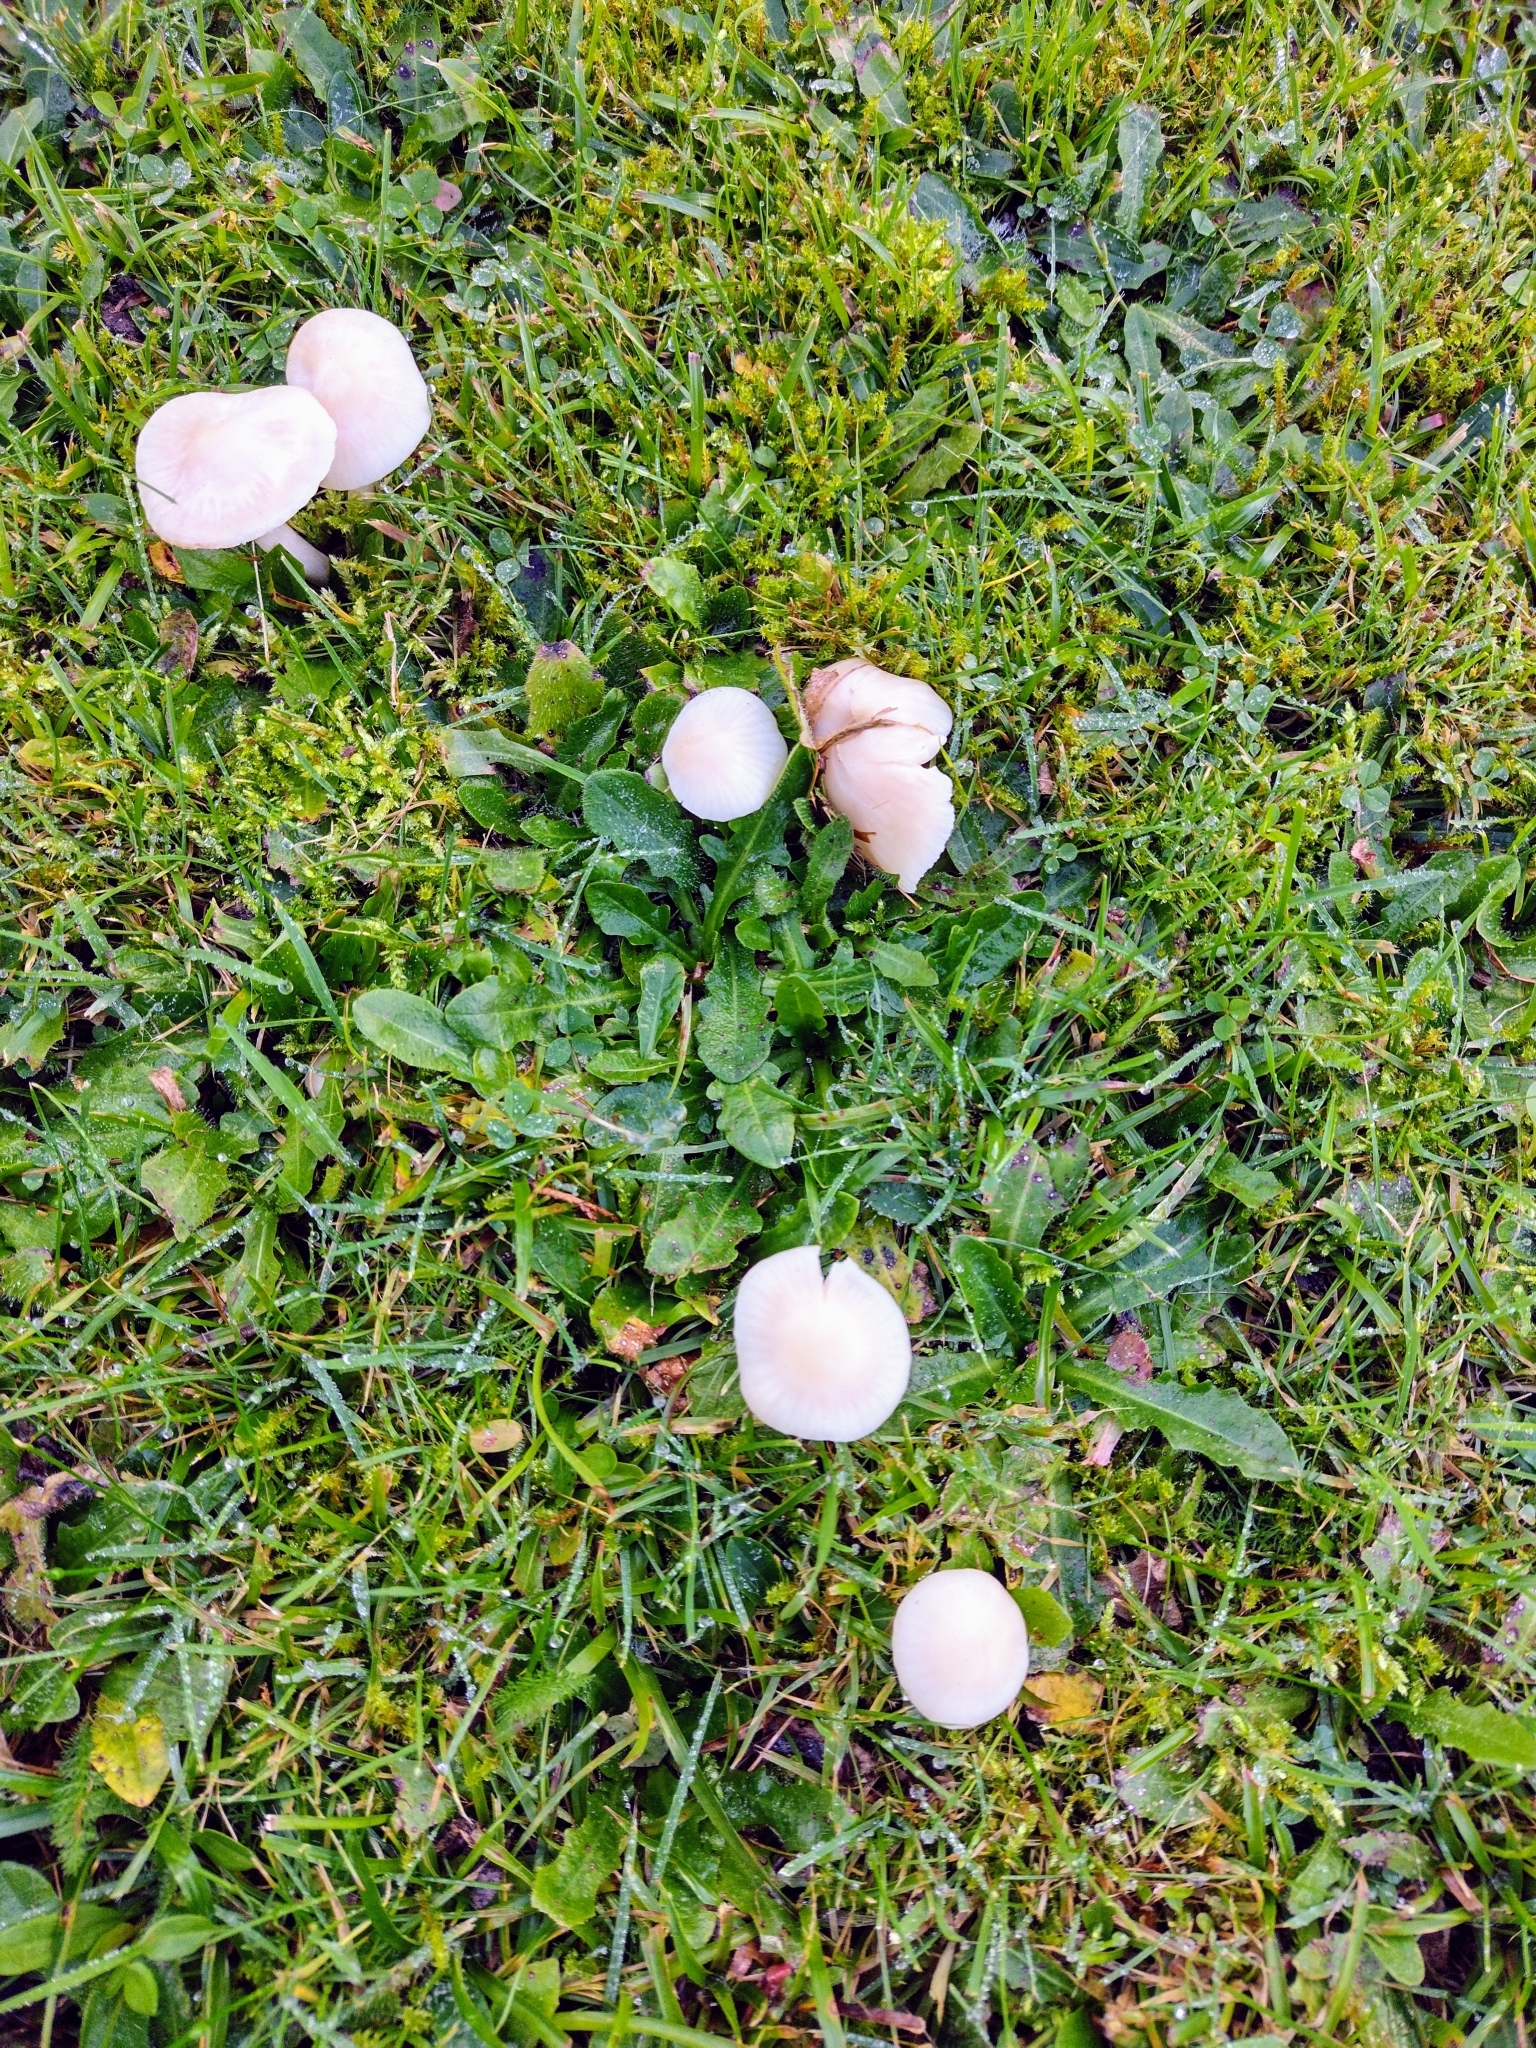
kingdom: Fungi
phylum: Basidiomycota
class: Agaricomycetes
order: Agaricales
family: Hygrophoraceae
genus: Cuphophyllus
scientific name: Cuphophyllus virgineus
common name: Snowy waxcap
